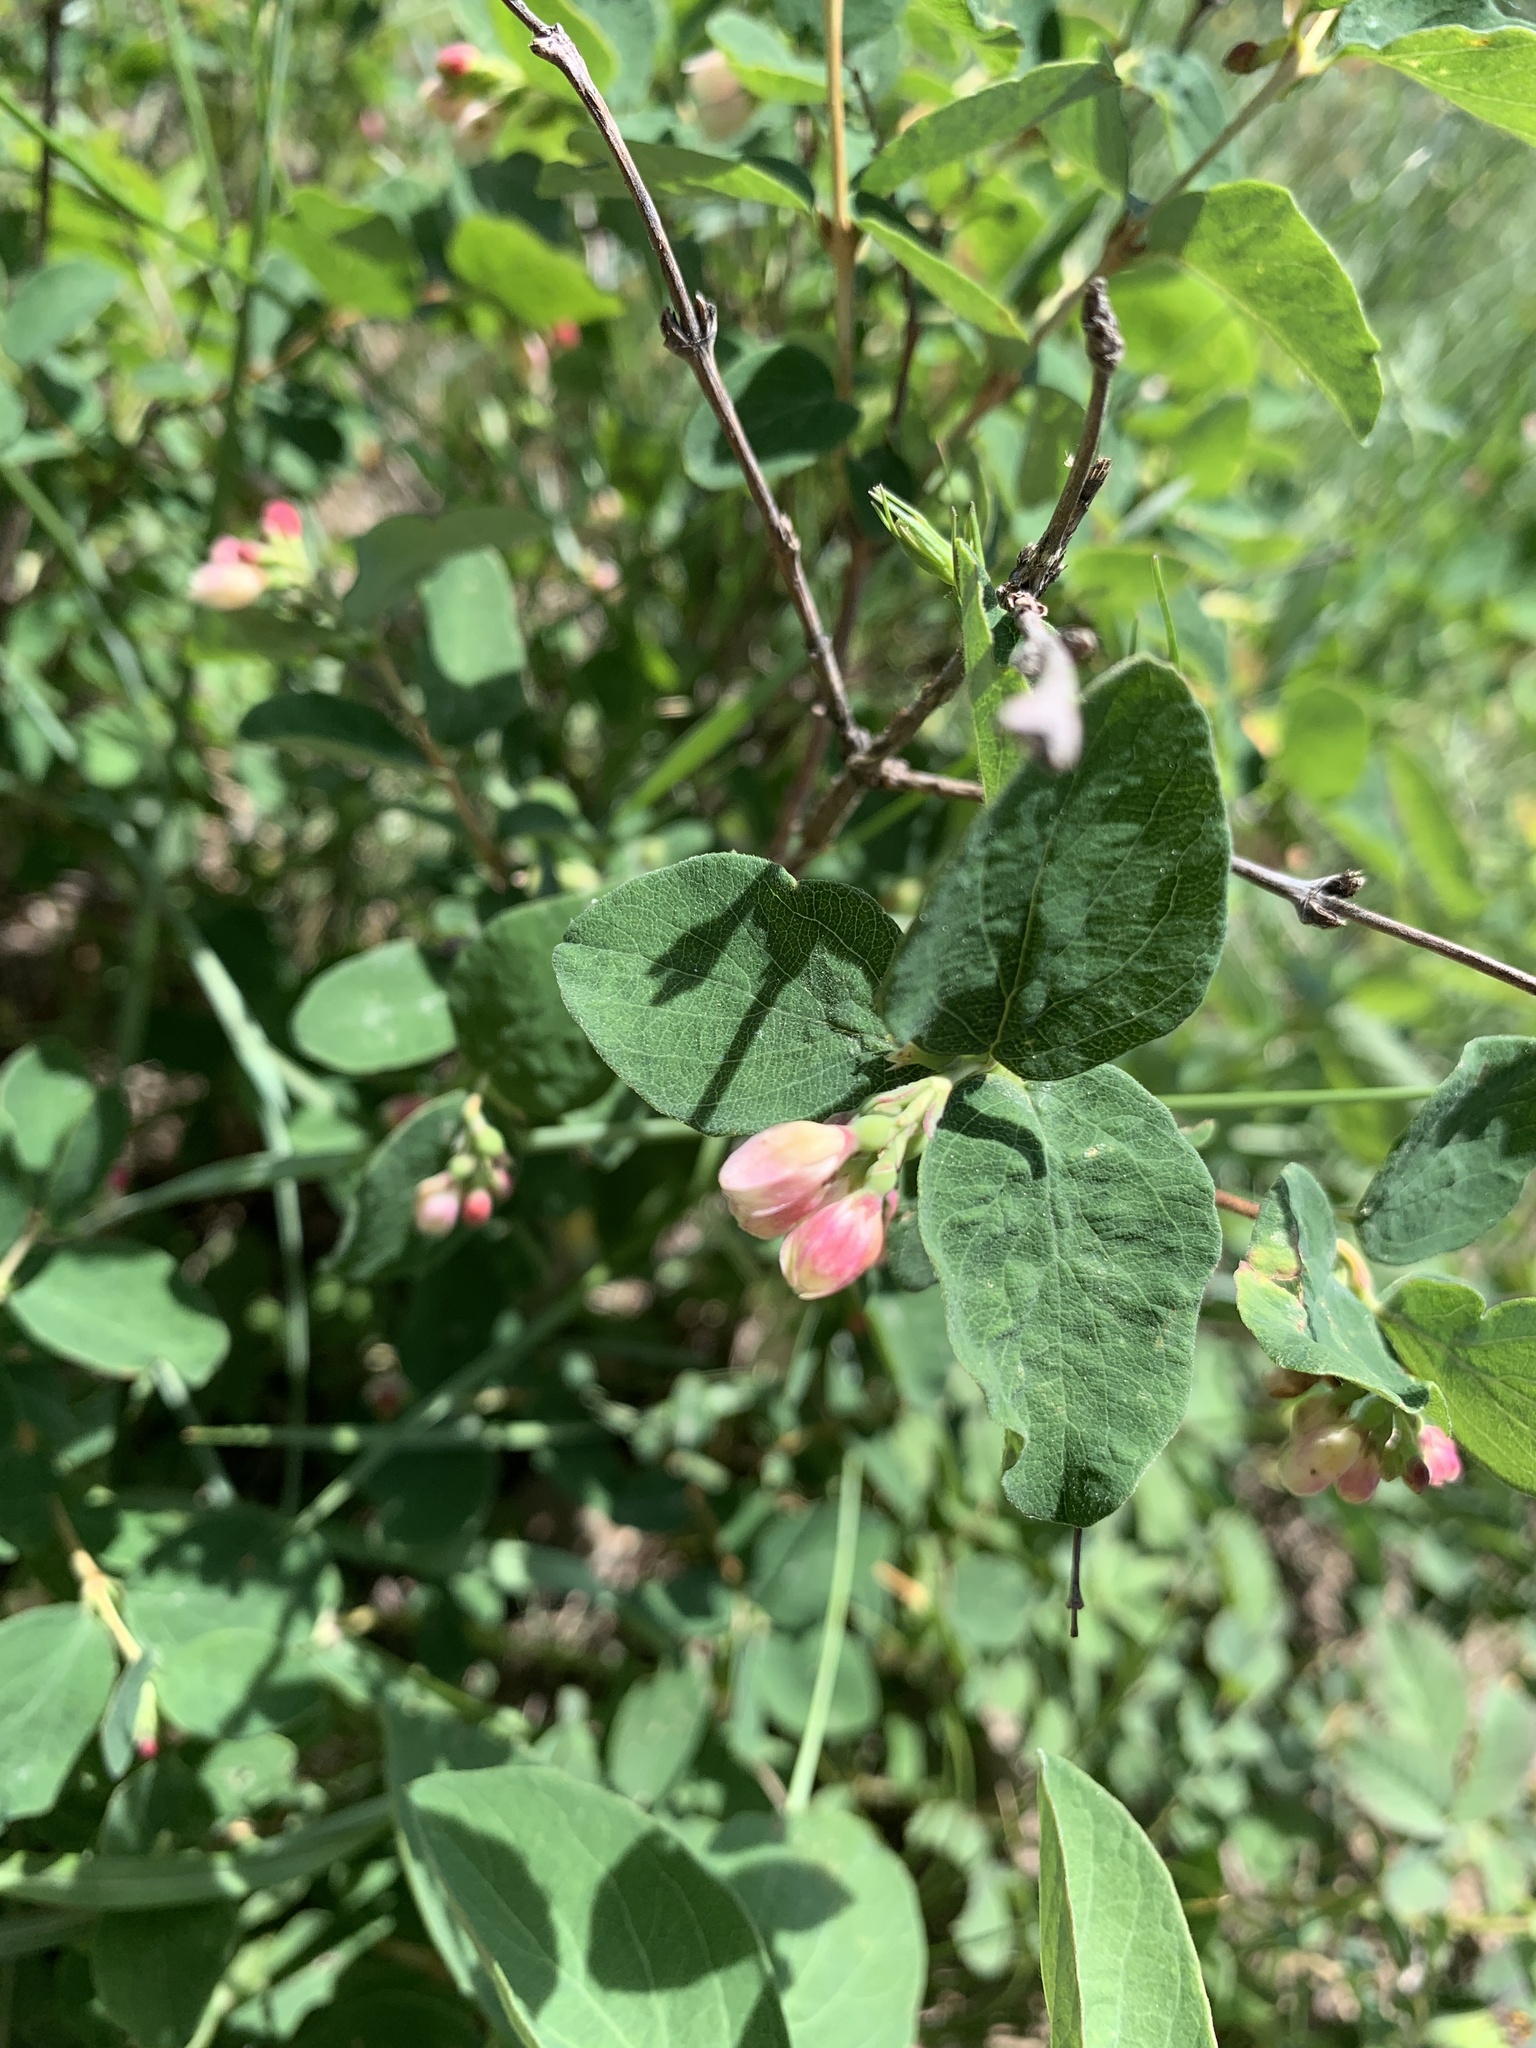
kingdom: Plantae
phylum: Tracheophyta
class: Magnoliopsida
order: Dipsacales
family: Caprifoliaceae
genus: Symphoricarpos
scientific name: Symphoricarpos albus
